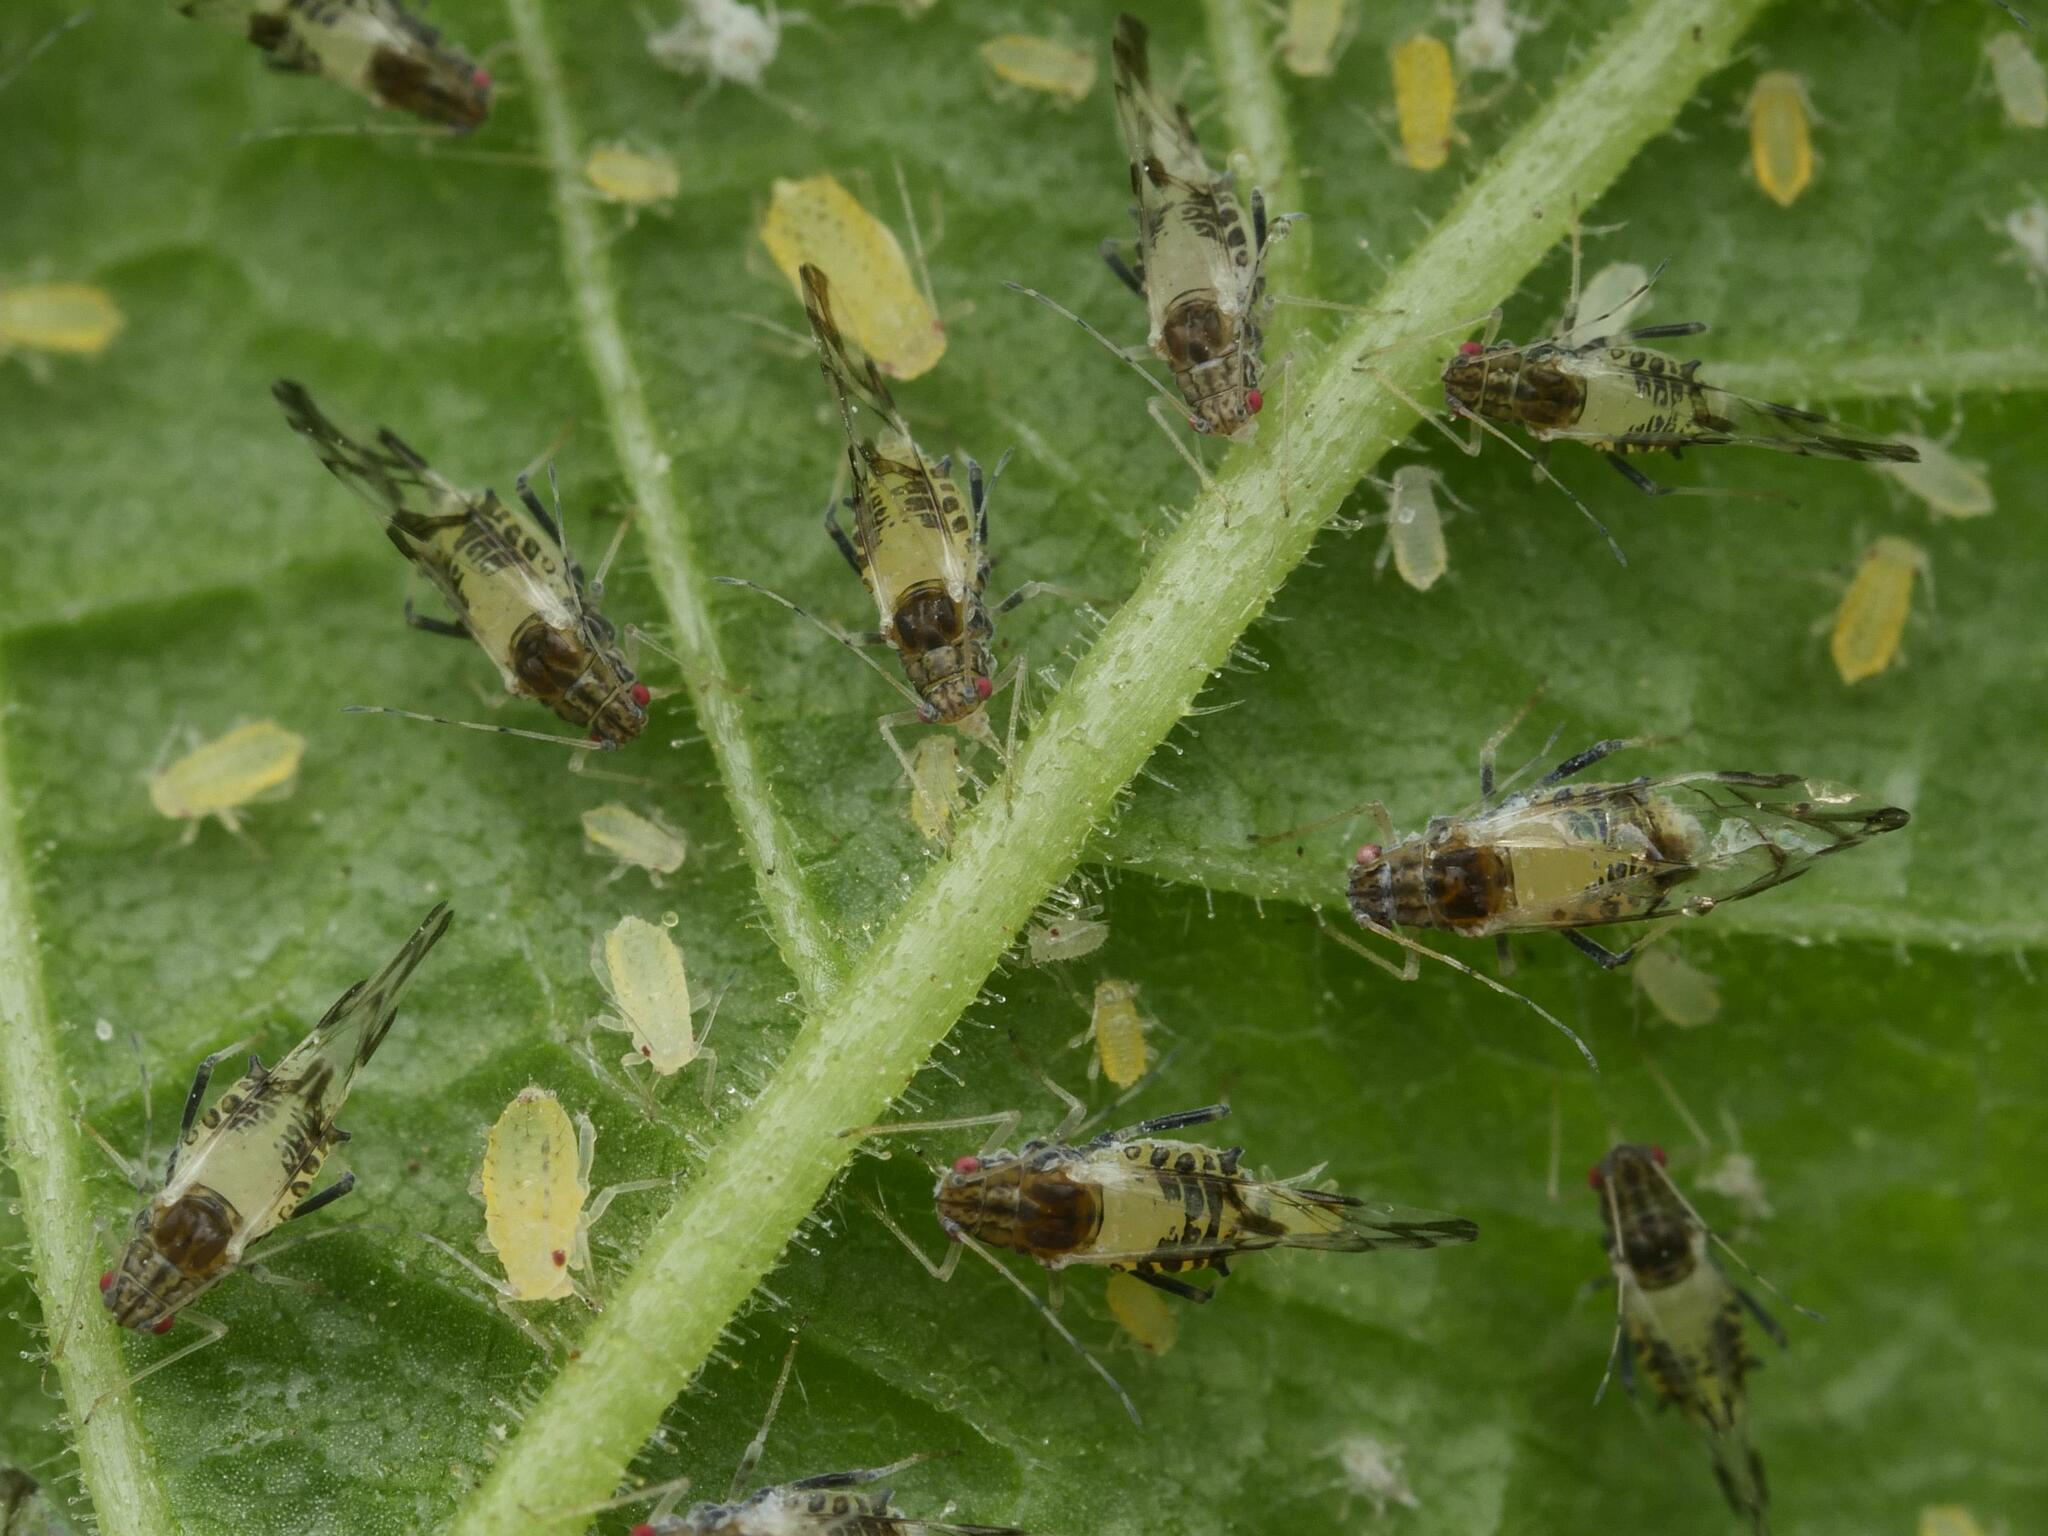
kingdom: Animalia
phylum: Arthropoda
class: Insecta
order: Hemiptera
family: Aphididae
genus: Tinocallis
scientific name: Tinocallis platani
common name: Elm aphid
